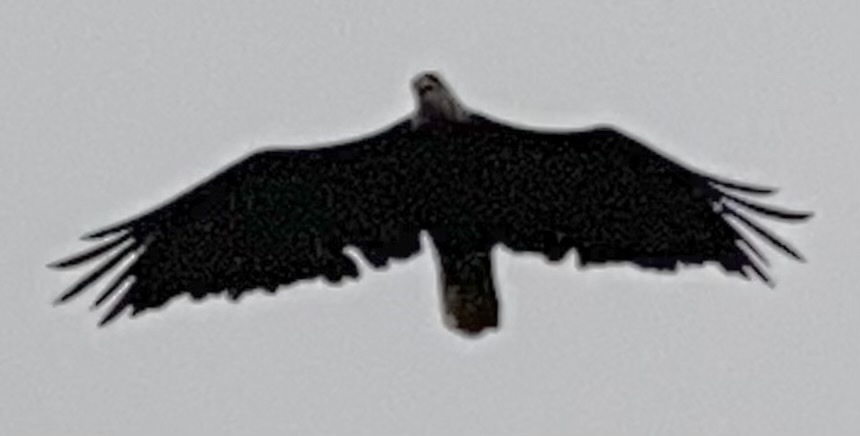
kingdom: Animalia
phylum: Chordata
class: Aves
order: Accipitriformes
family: Accipitridae
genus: Haliaeetus
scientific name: Haliaeetus leucocephalus
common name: Bald eagle
